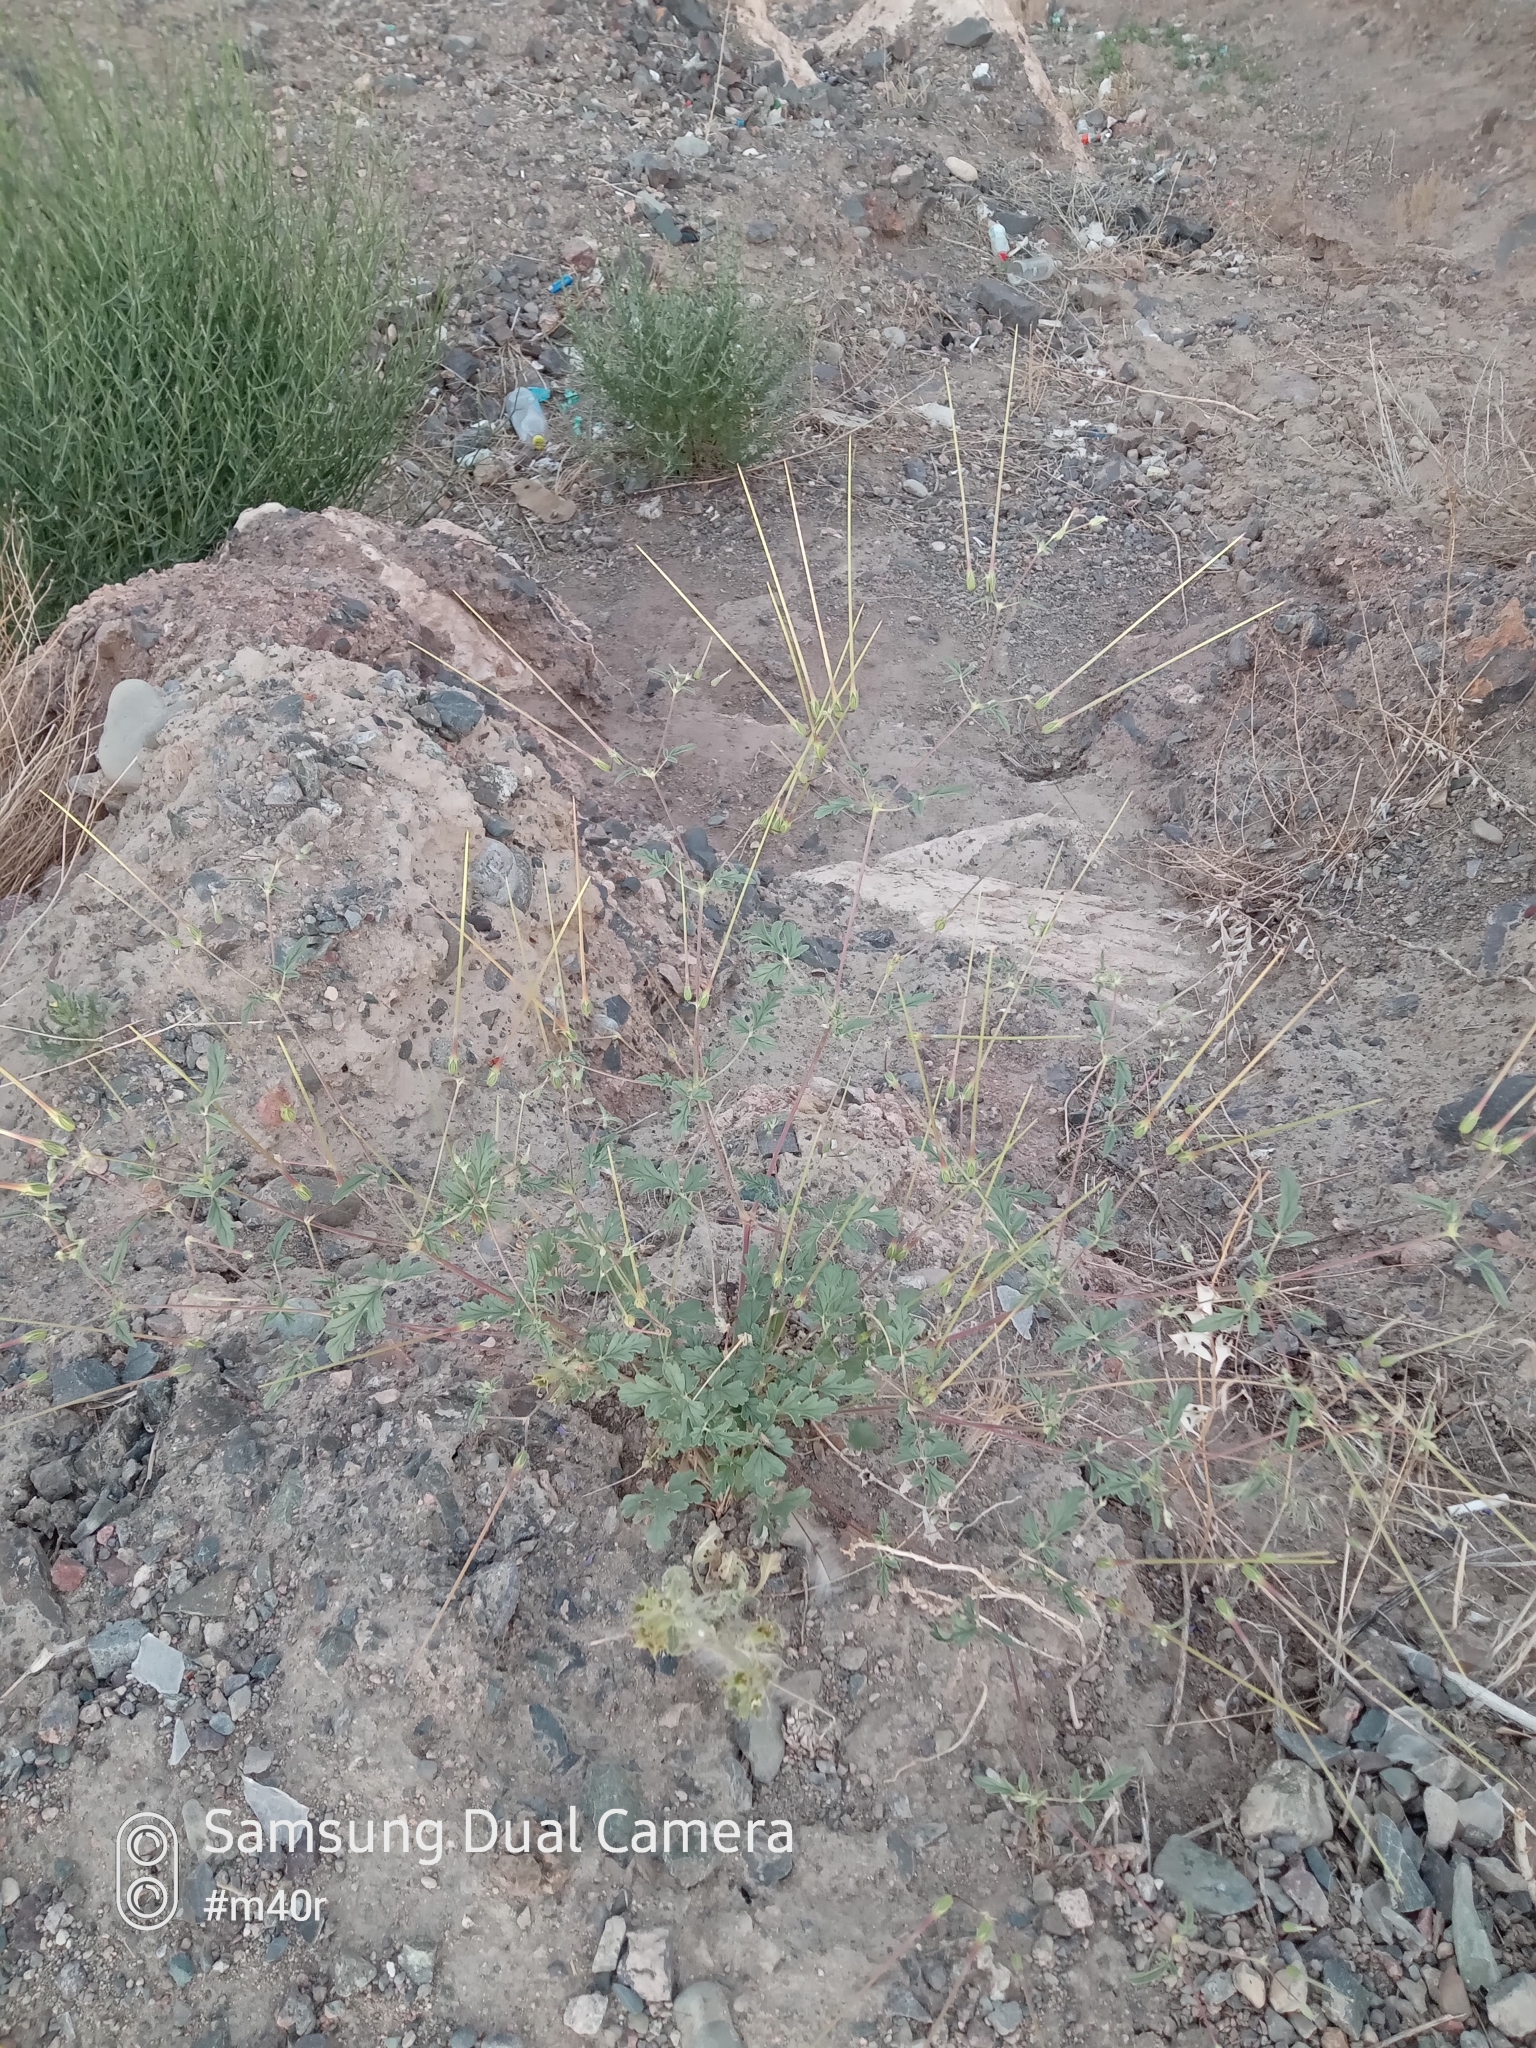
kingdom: Plantae
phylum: Tracheophyta
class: Magnoliopsida
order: Geraniales
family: Geraniaceae
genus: Erodium
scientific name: Erodium oxyrrhynchum
